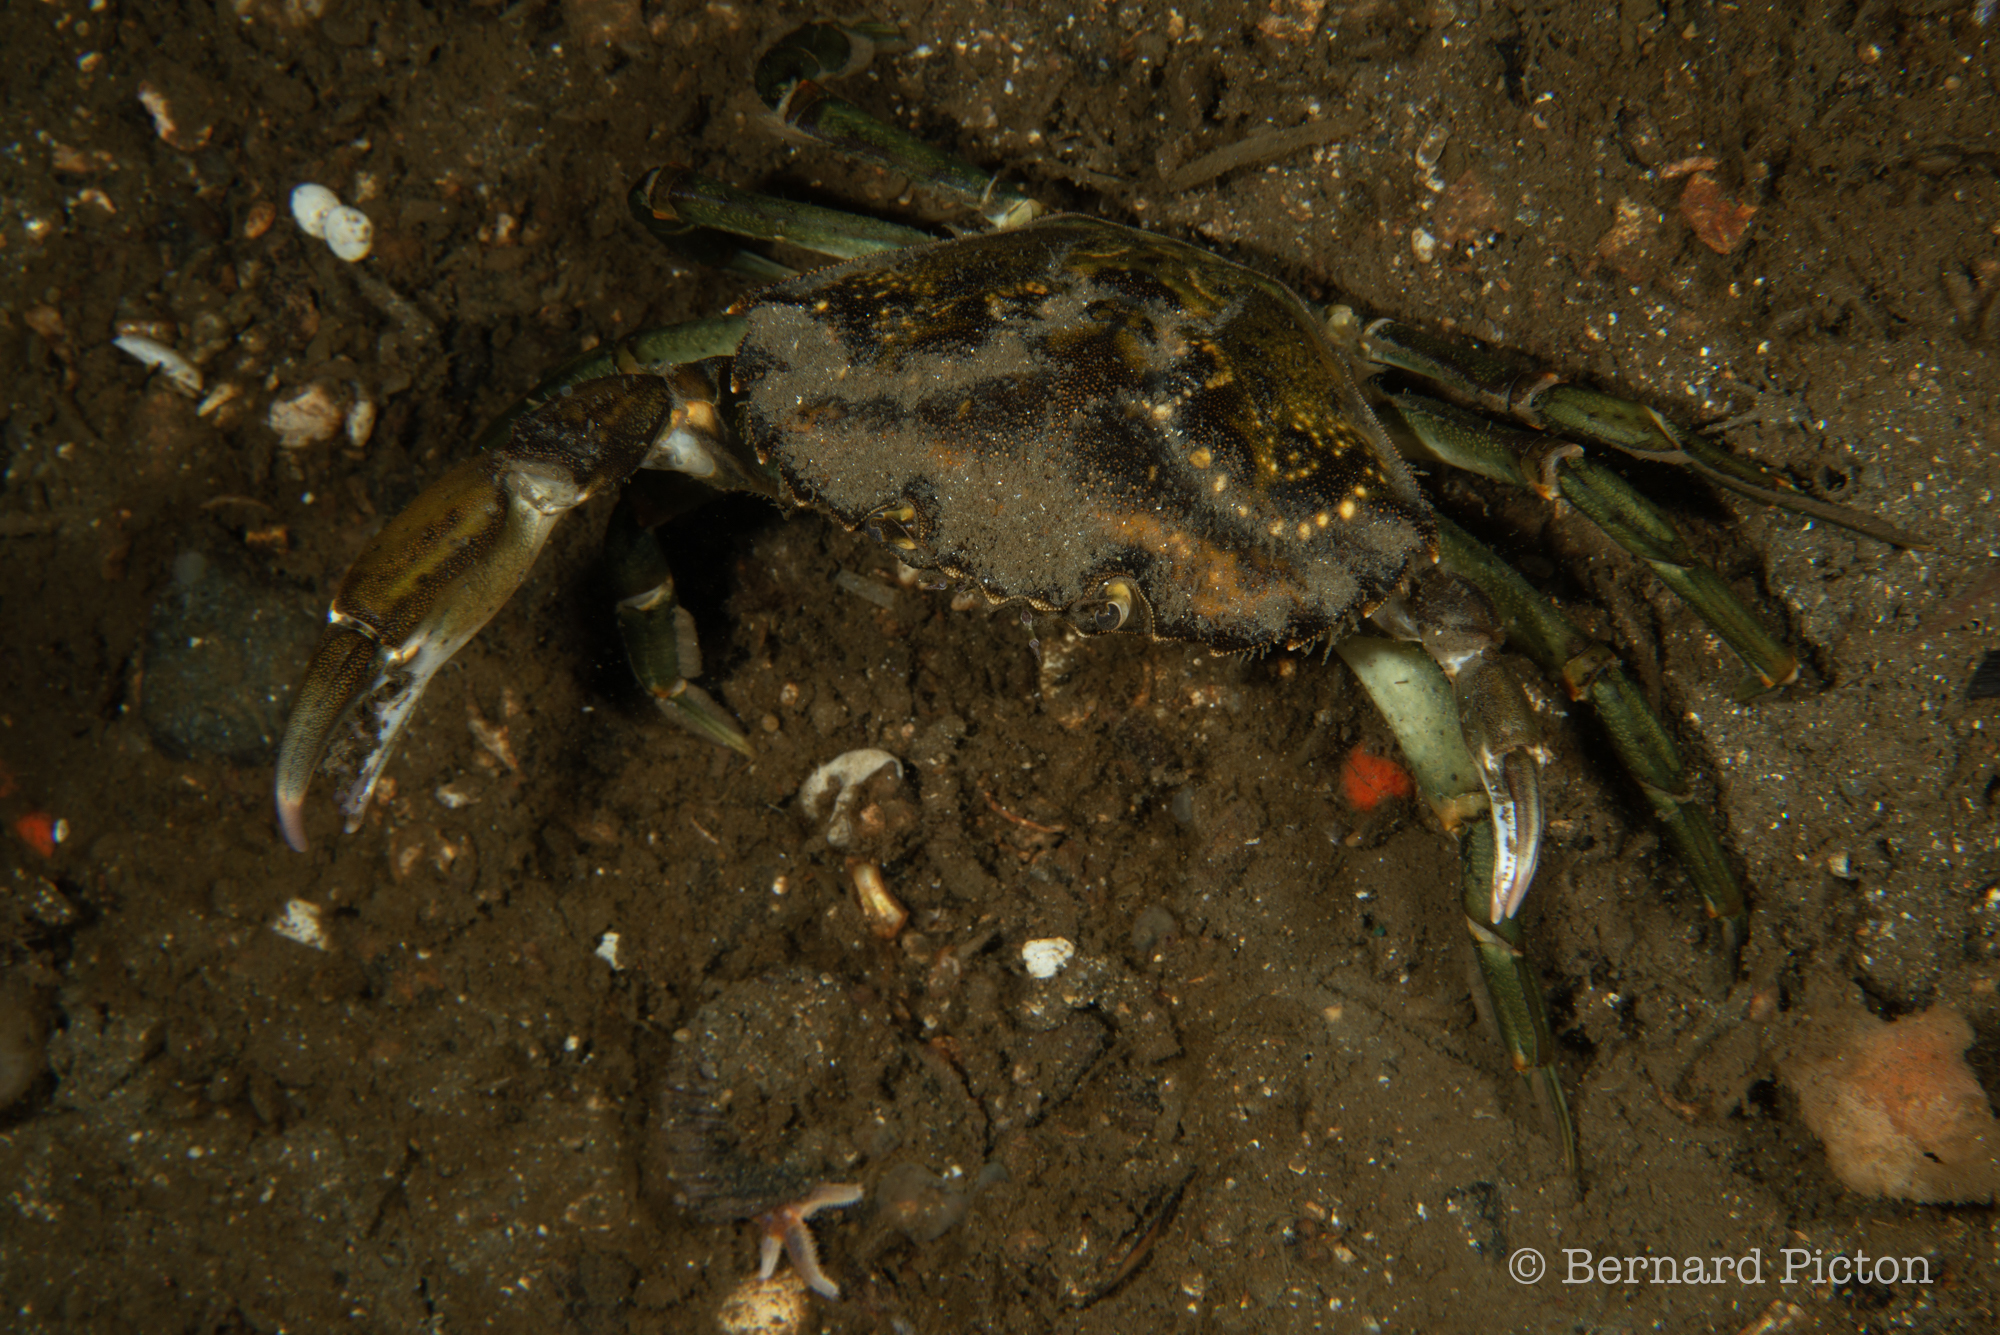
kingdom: Animalia
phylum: Arthropoda
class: Malacostraca
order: Decapoda
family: Carcinidae
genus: Carcinus
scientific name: Carcinus maenas
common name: European green crab
